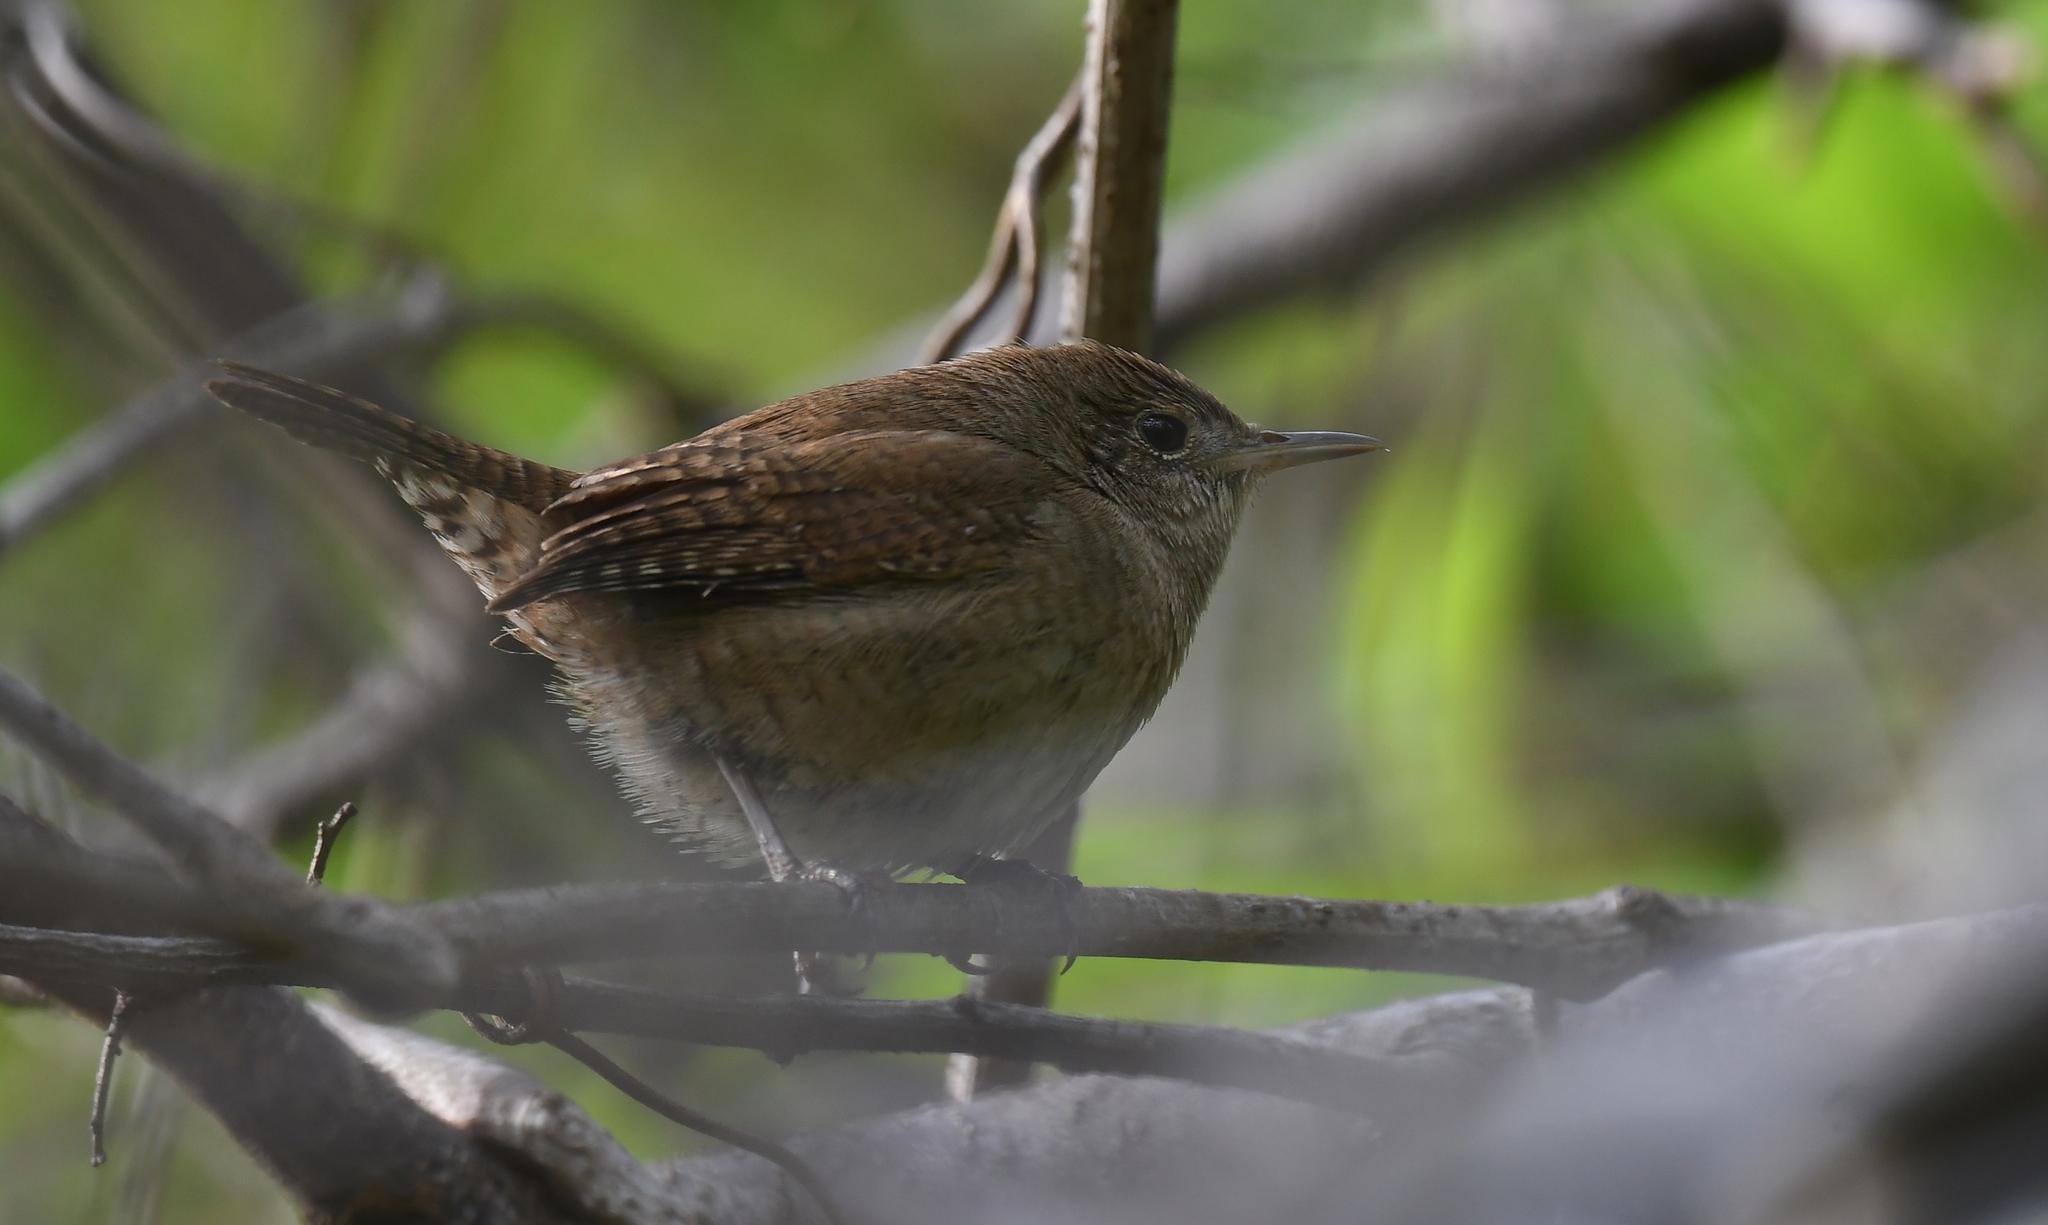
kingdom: Animalia
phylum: Chordata
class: Aves
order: Passeriformes
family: Troglodytidae
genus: Troglodytes
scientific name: Troglodytes aedon
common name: House wren
